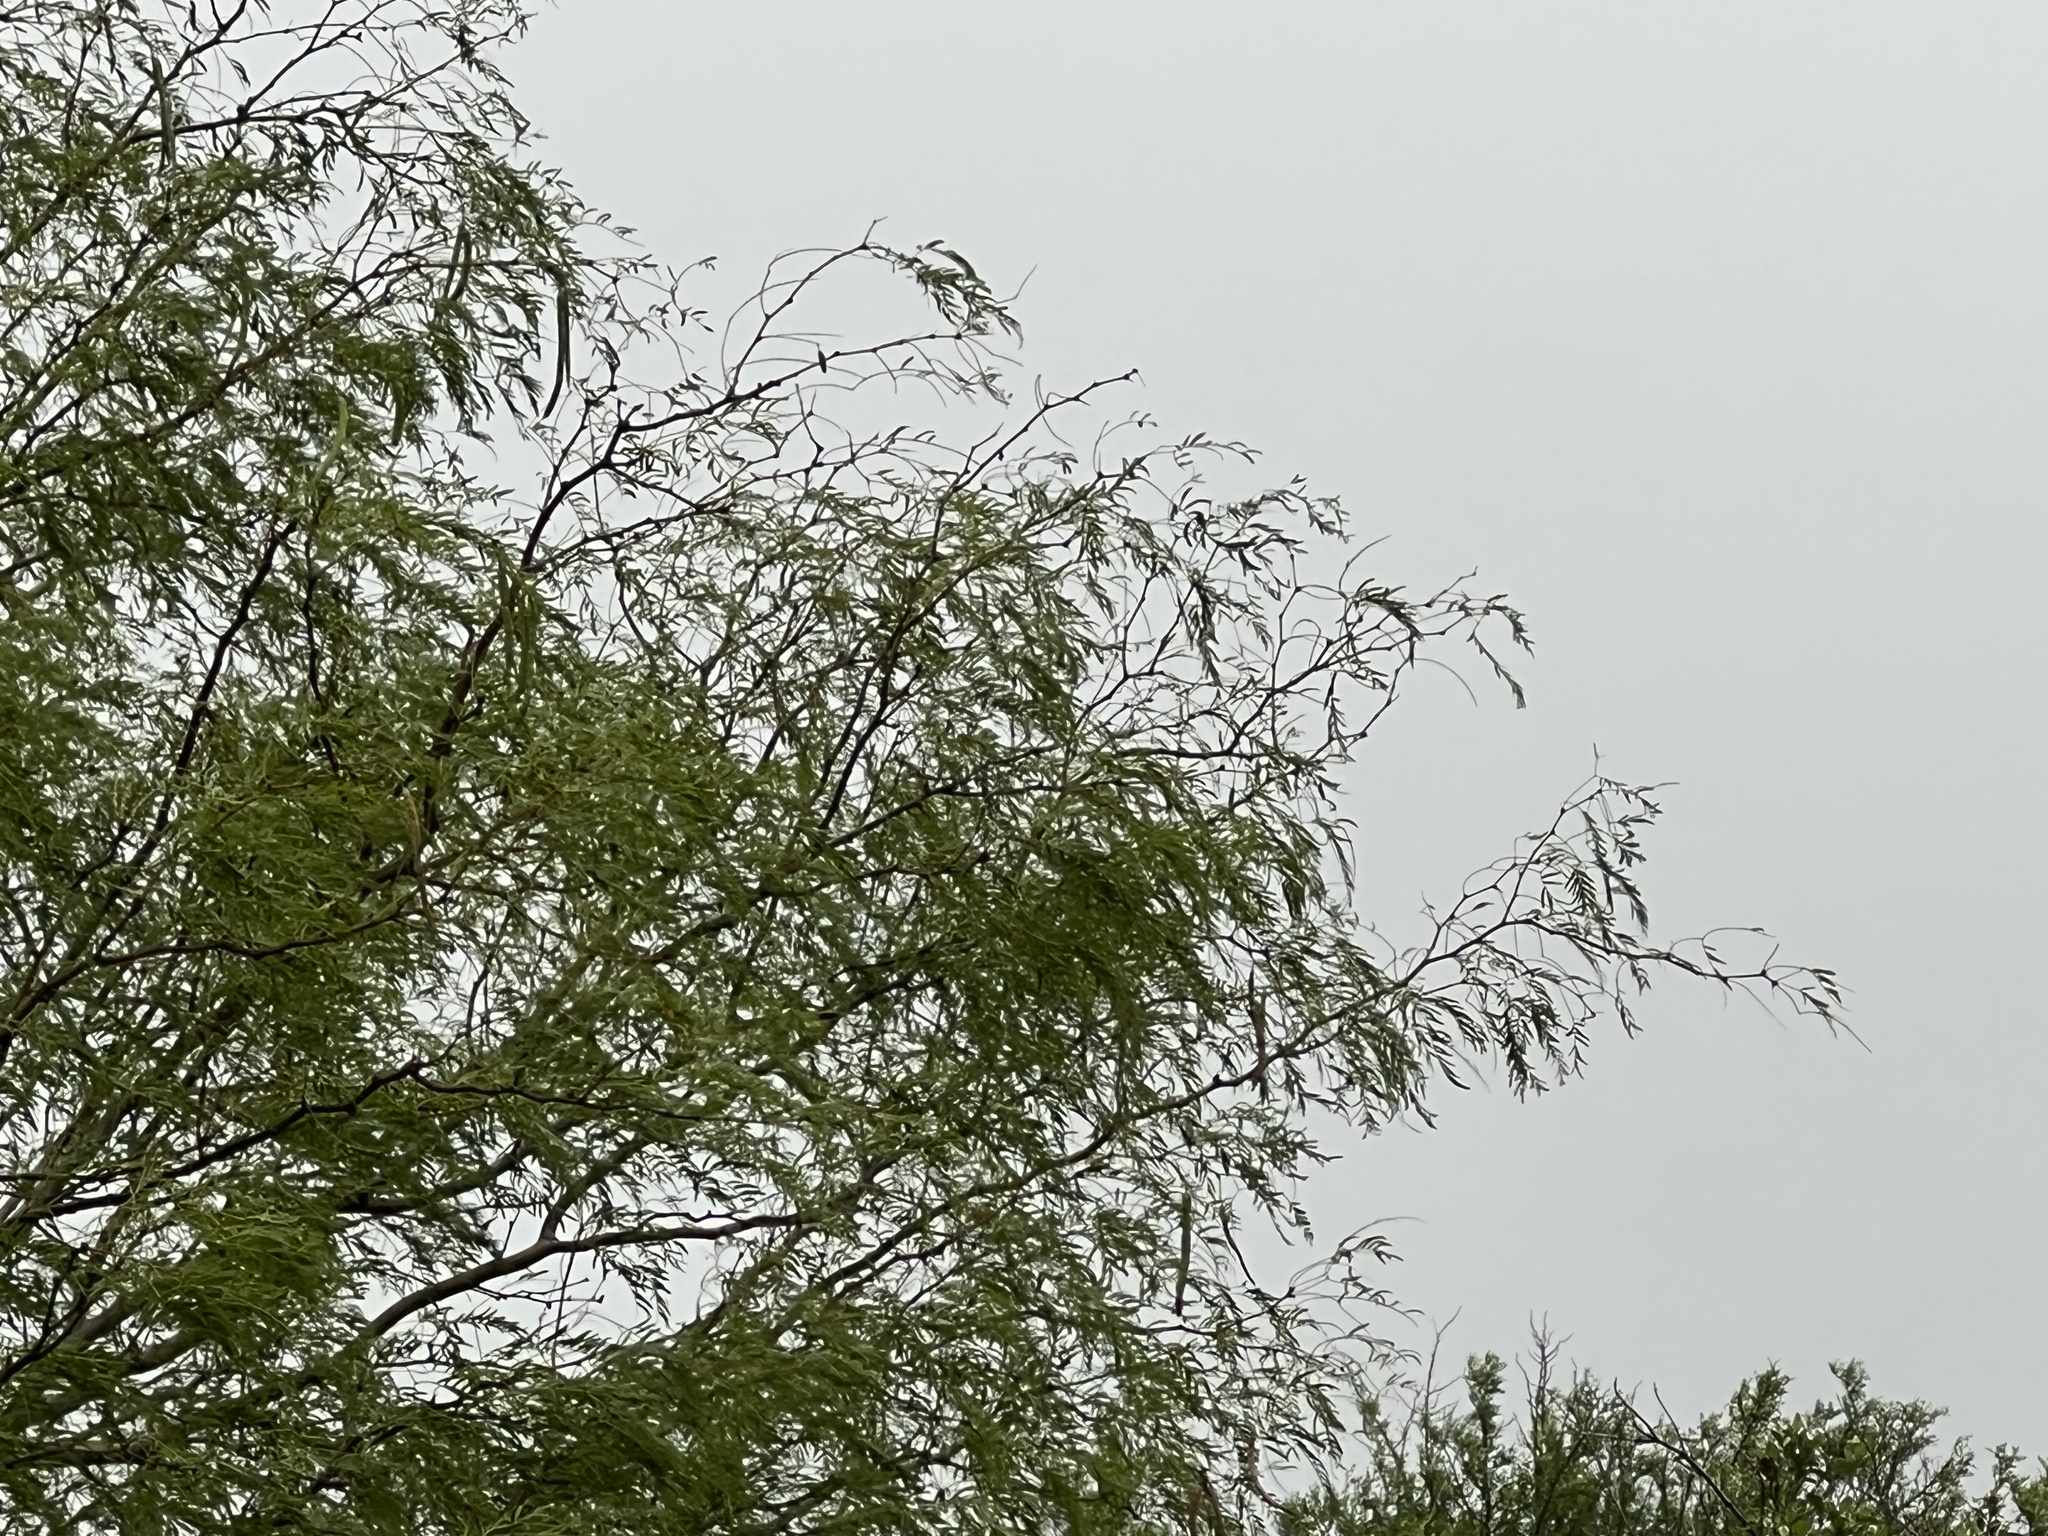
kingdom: Plantae
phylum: Tracheophyta
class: Magnoliopsida
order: Fabales
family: Fabaceae
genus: Prosopis
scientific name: Prosopis glandulosa
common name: Honey mesquite
